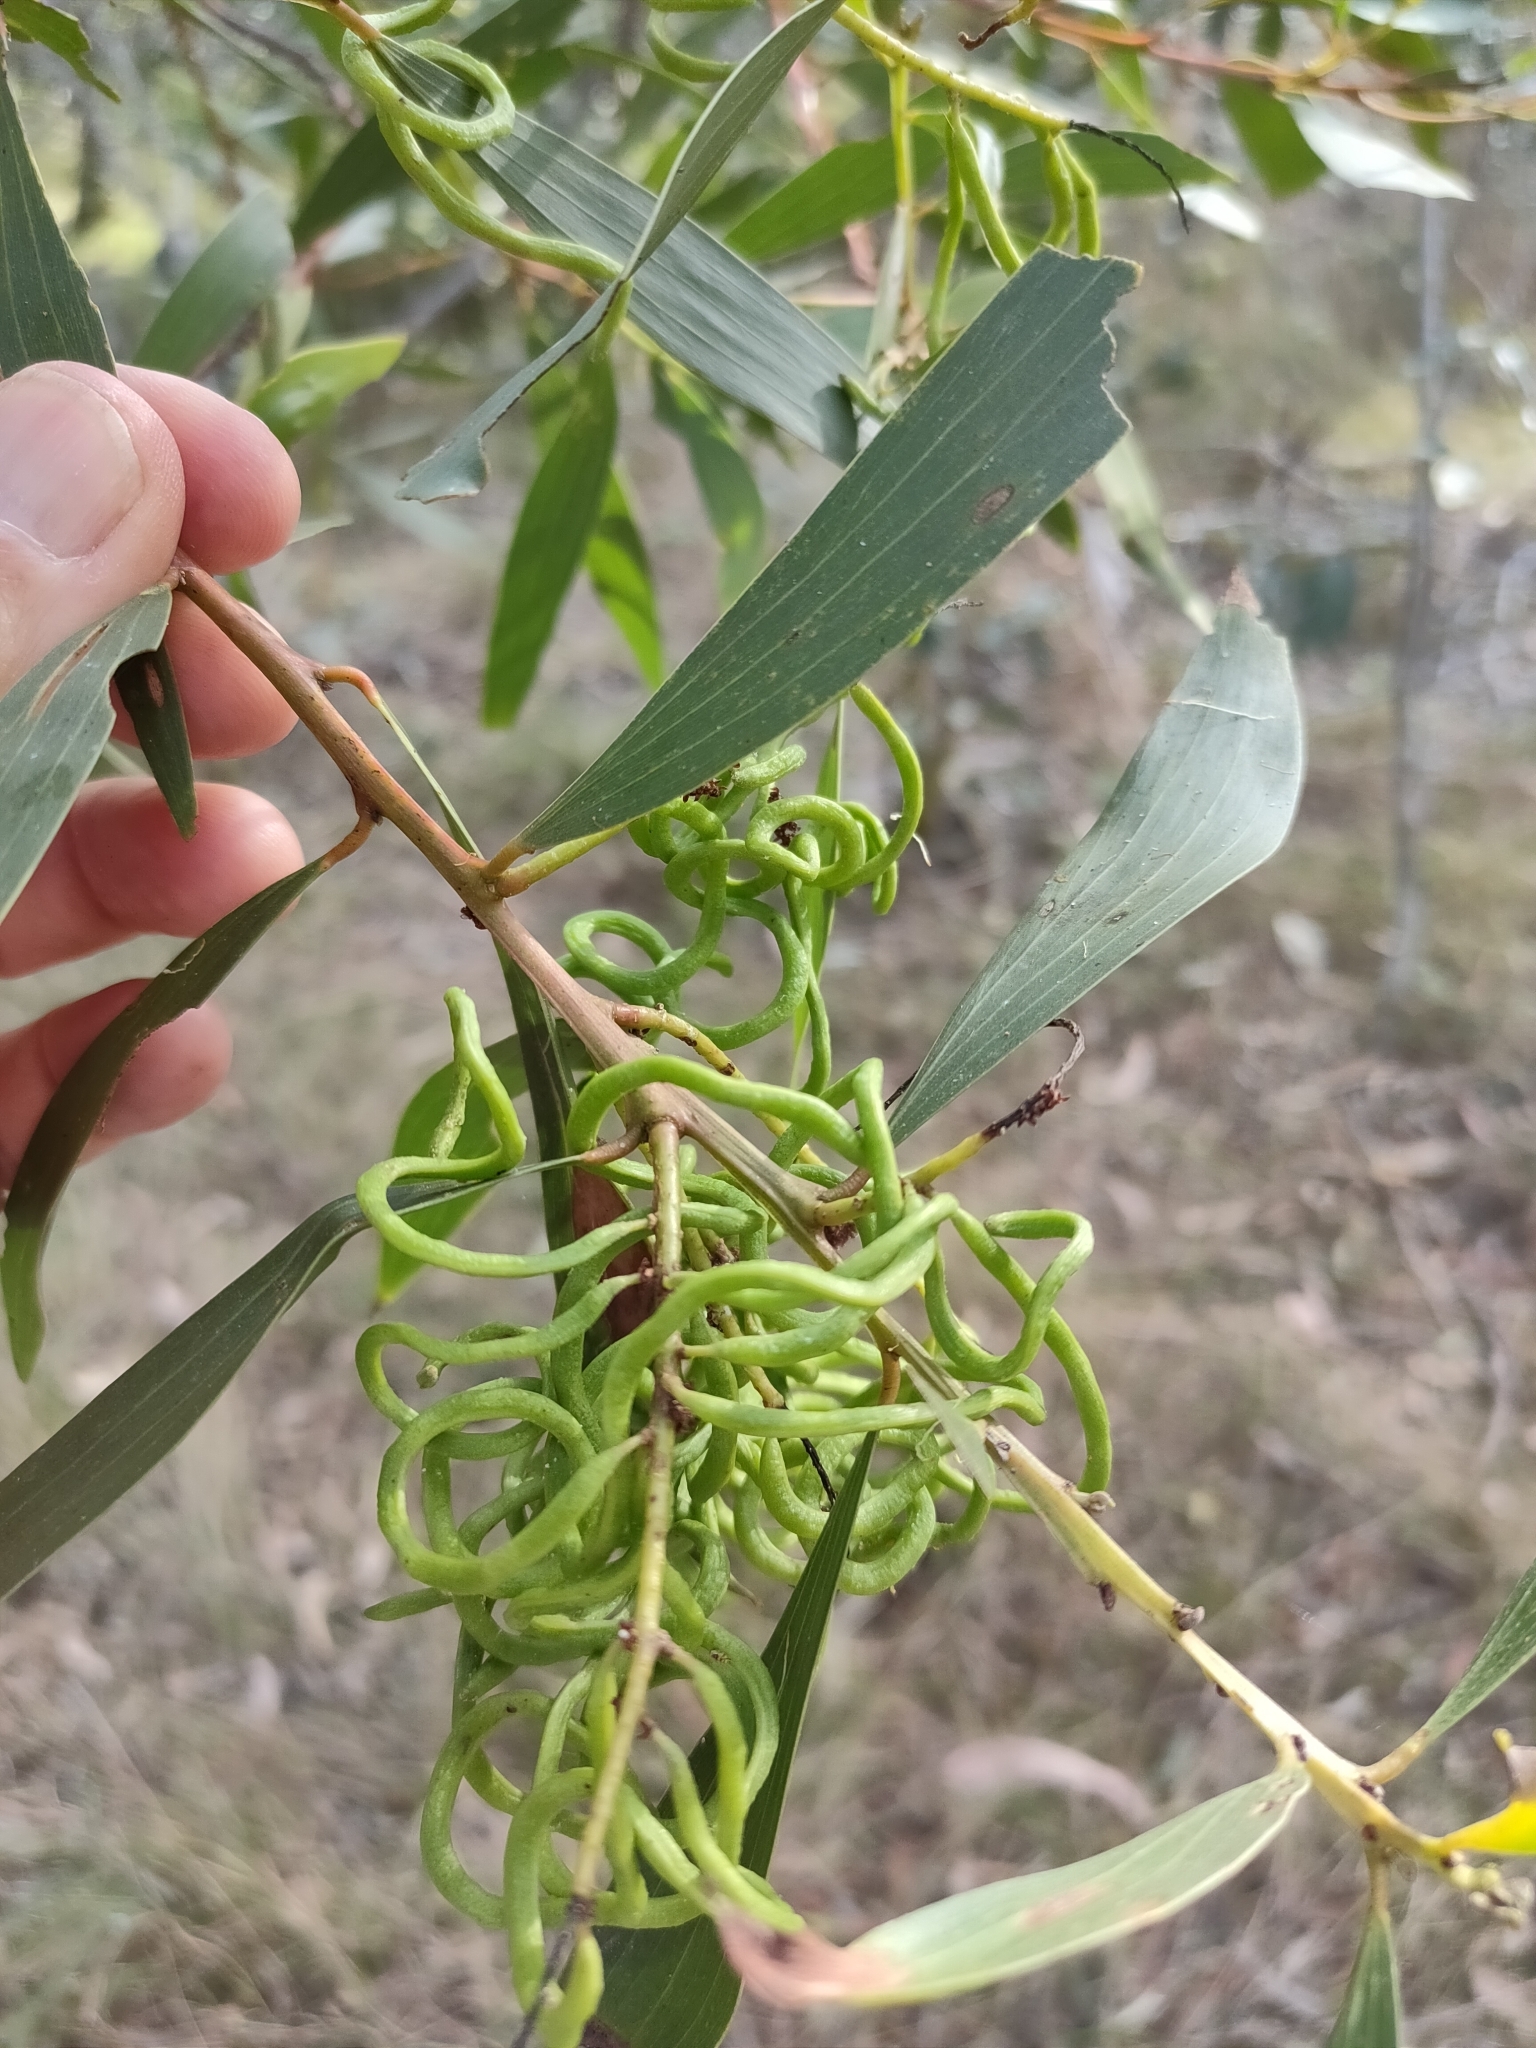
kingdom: Plantae
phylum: Tracheophyta
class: Magnoliopsida
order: Fabales
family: Fabaceae
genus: Acacia
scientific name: Acacia leiocalyx
